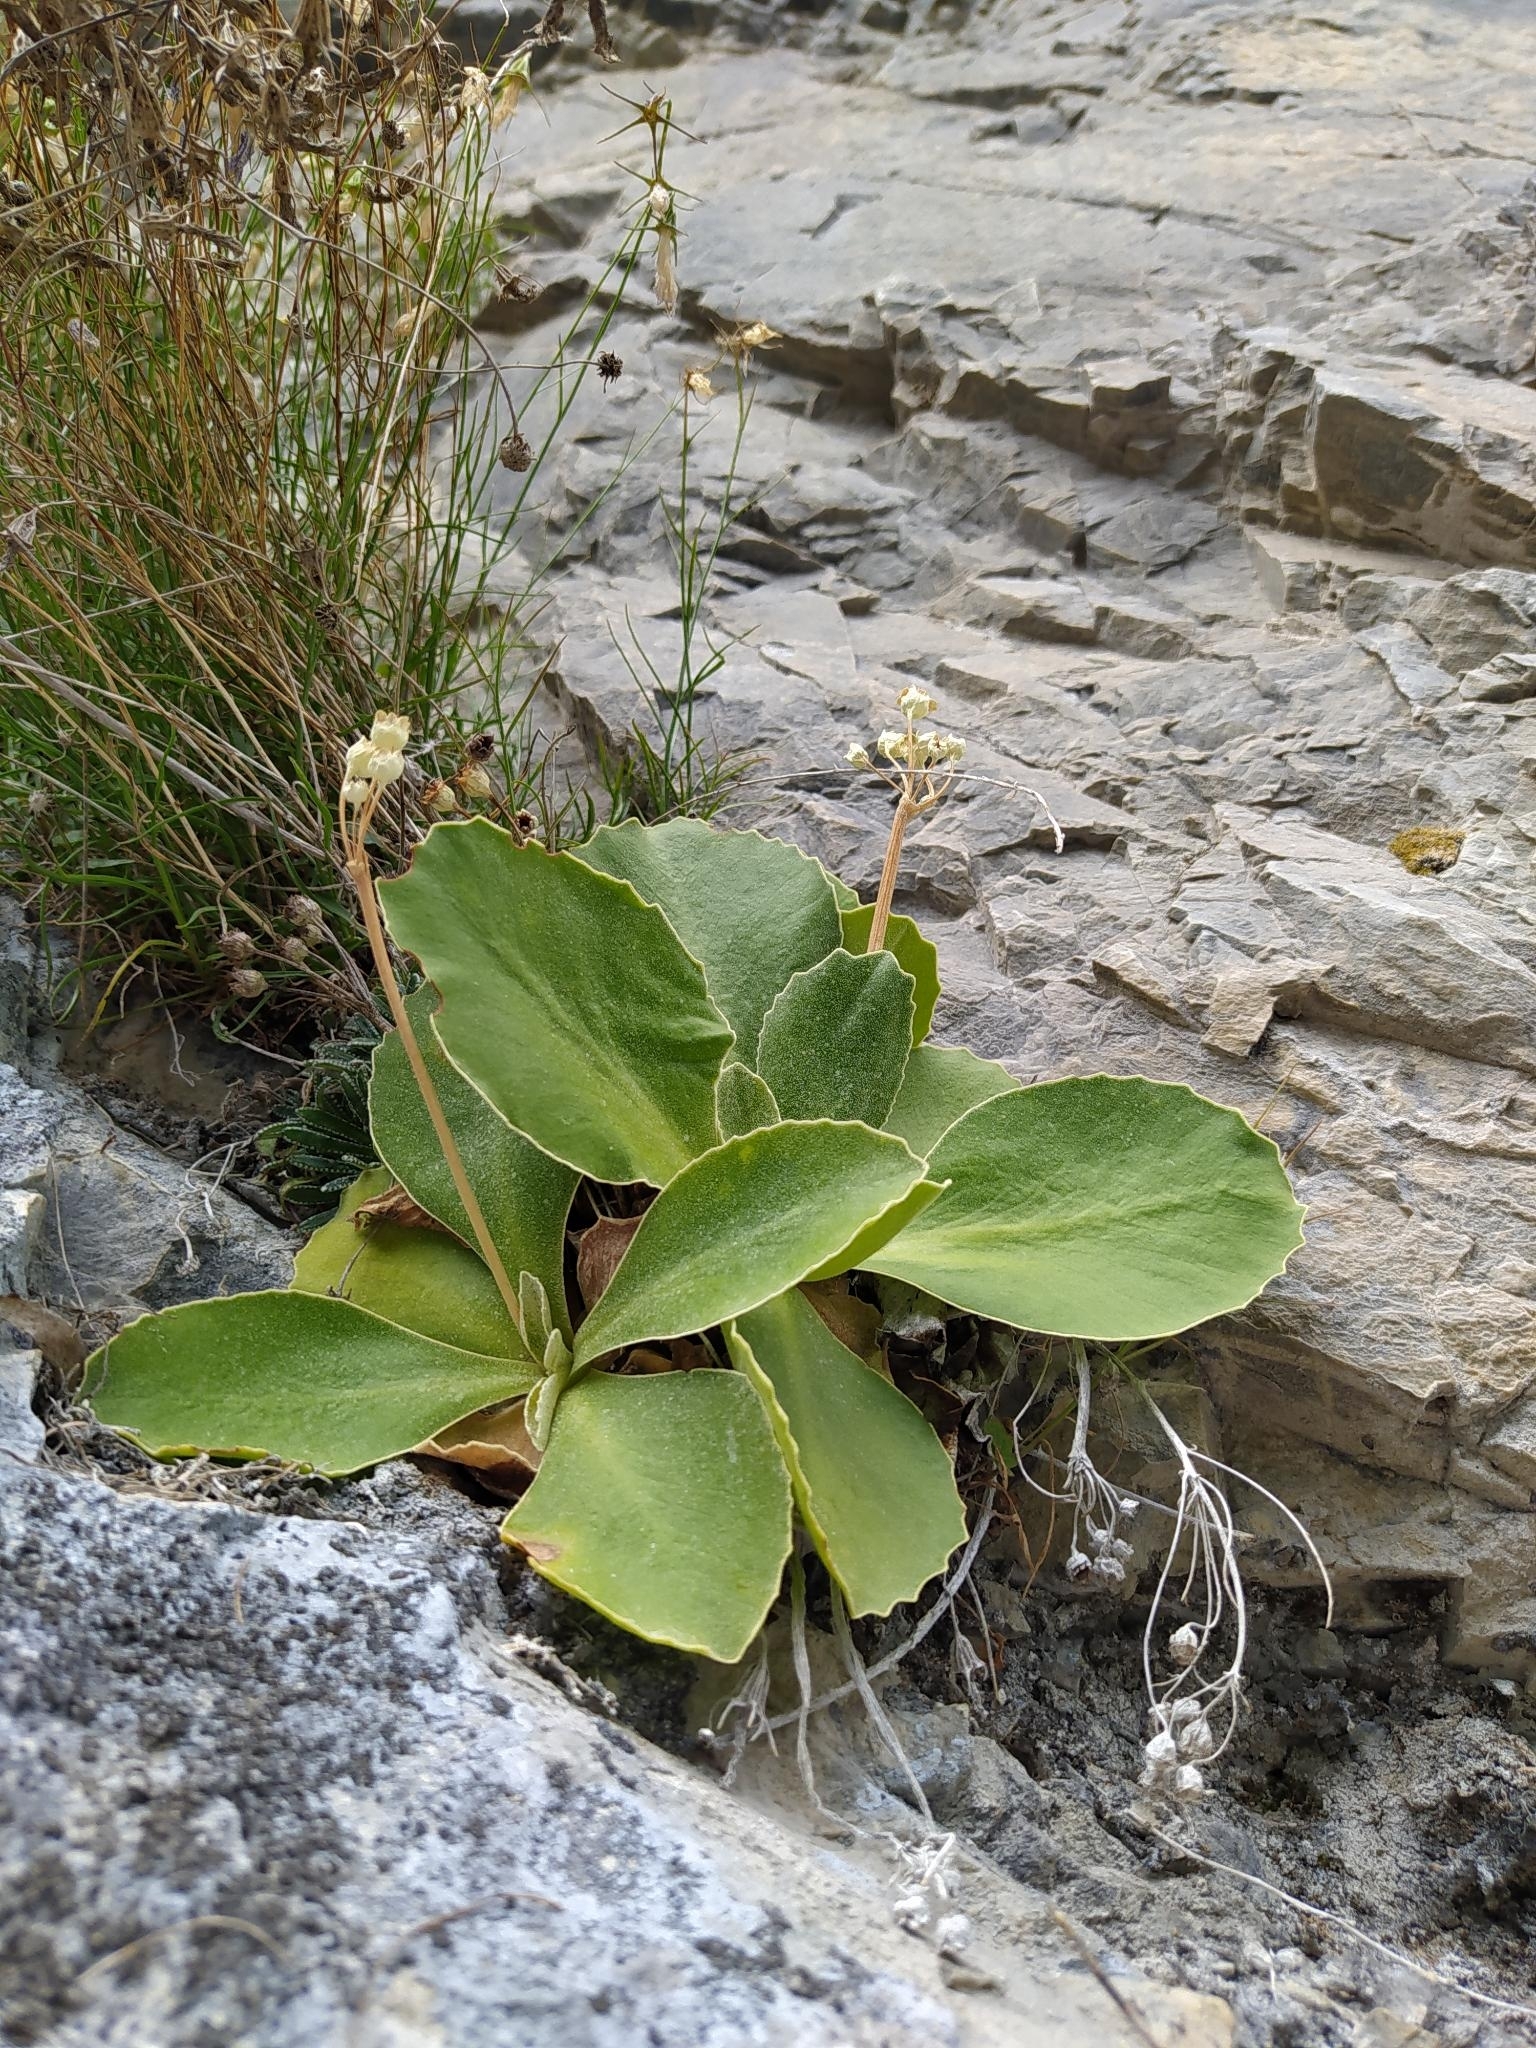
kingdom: Plantae
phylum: Tracheophyta
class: Magnoliopsida
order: Ericales
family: Primulaceae
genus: Primula
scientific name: Primula auricula
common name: Auricula
